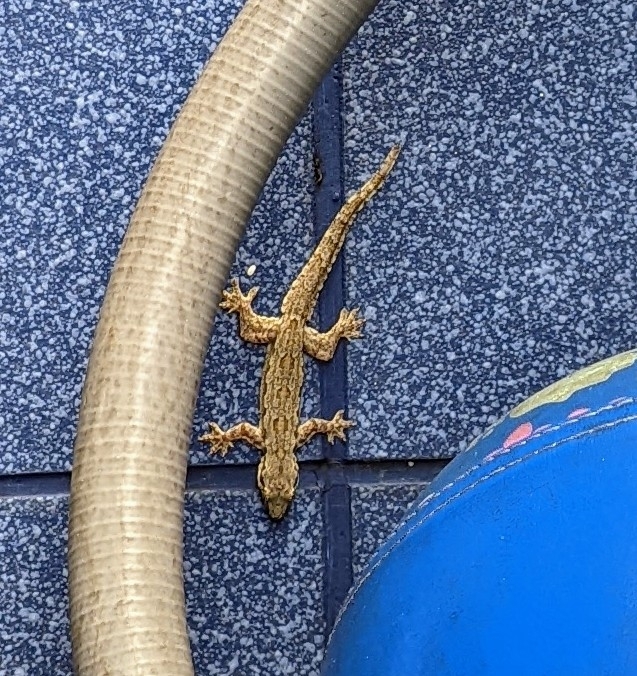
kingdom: Animalia
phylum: Chordata
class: Squamata
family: Gekkonidae
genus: Hemidactylus
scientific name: Hemidactylus platyurus
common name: Flat-tailed house gecko
